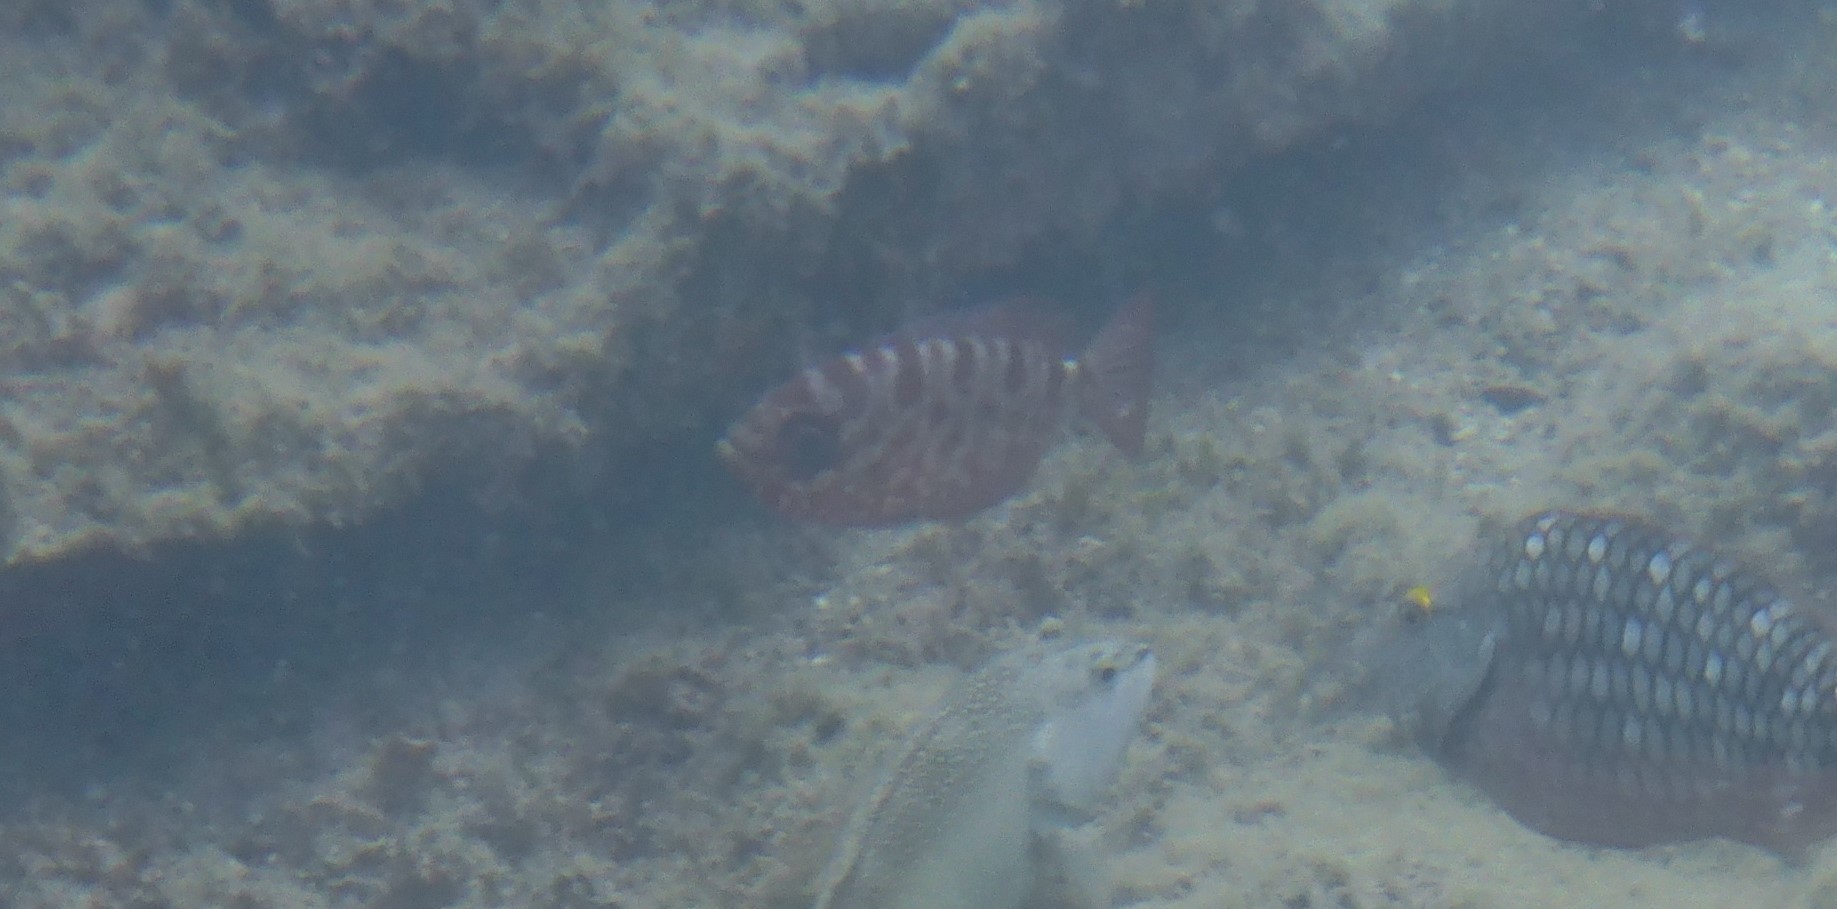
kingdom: Animalia
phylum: Chordata
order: Perciformes
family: Priacanthidae
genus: Heteropriacanthus
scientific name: Heteropriacanthus cruentatus
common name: Glasseye
